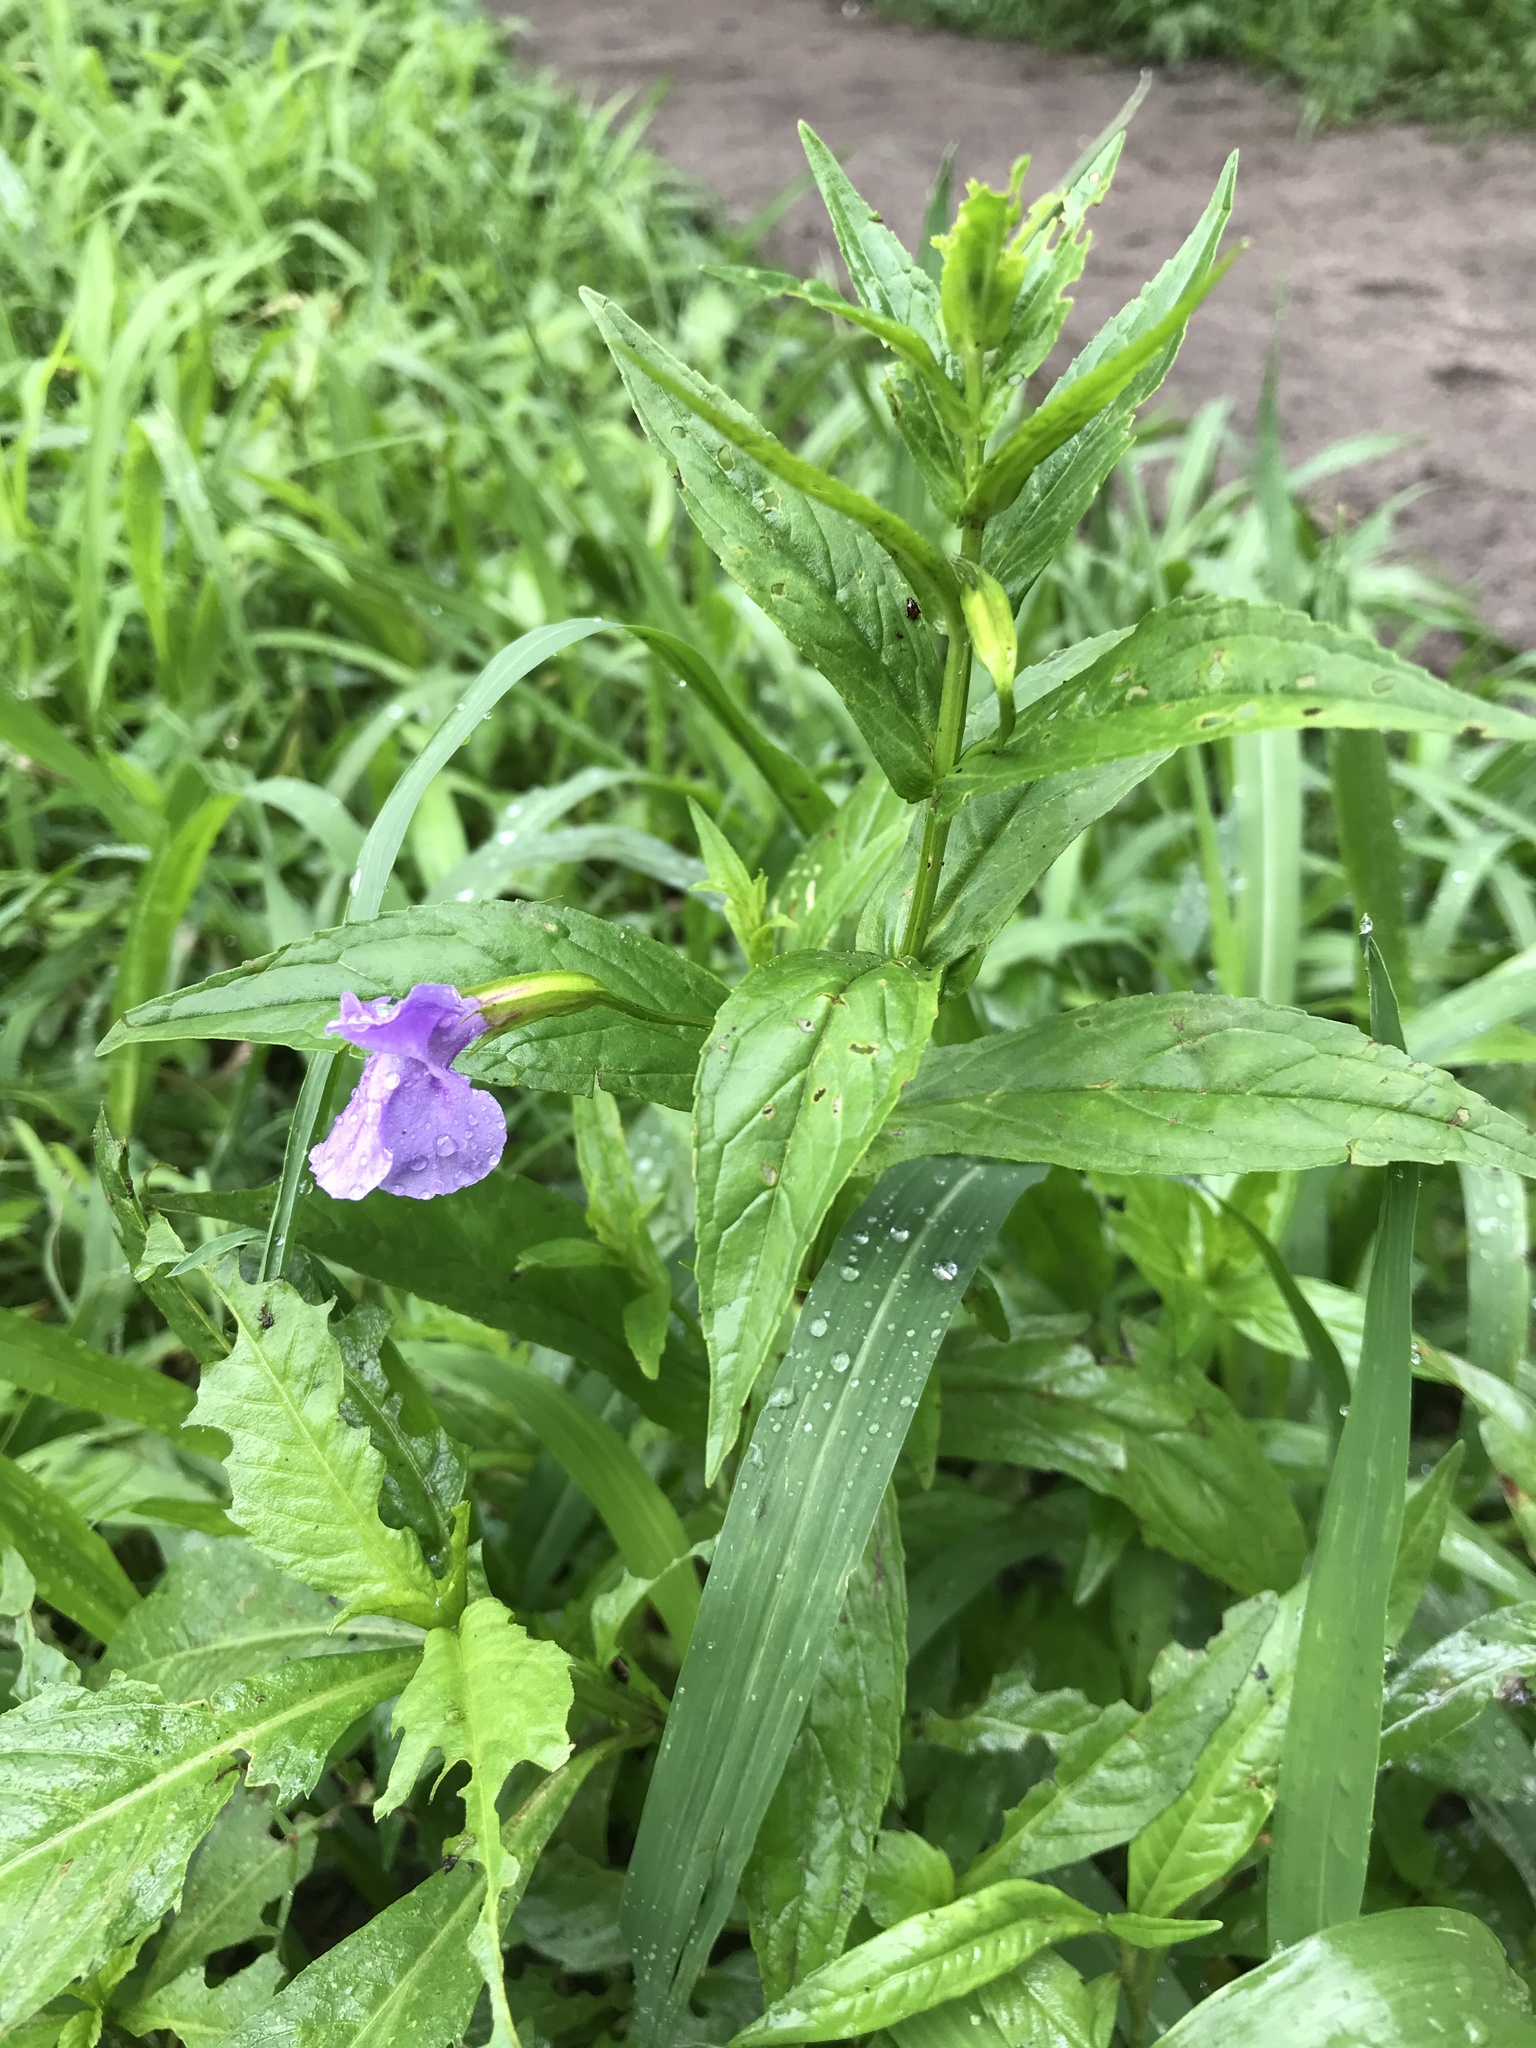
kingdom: Plantae
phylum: Tracheophyta
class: Magnoliopsida
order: Lamiales
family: Phrymaceae
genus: Mimulus
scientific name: Mimulus ringens
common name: Allegheny monkeyflower
